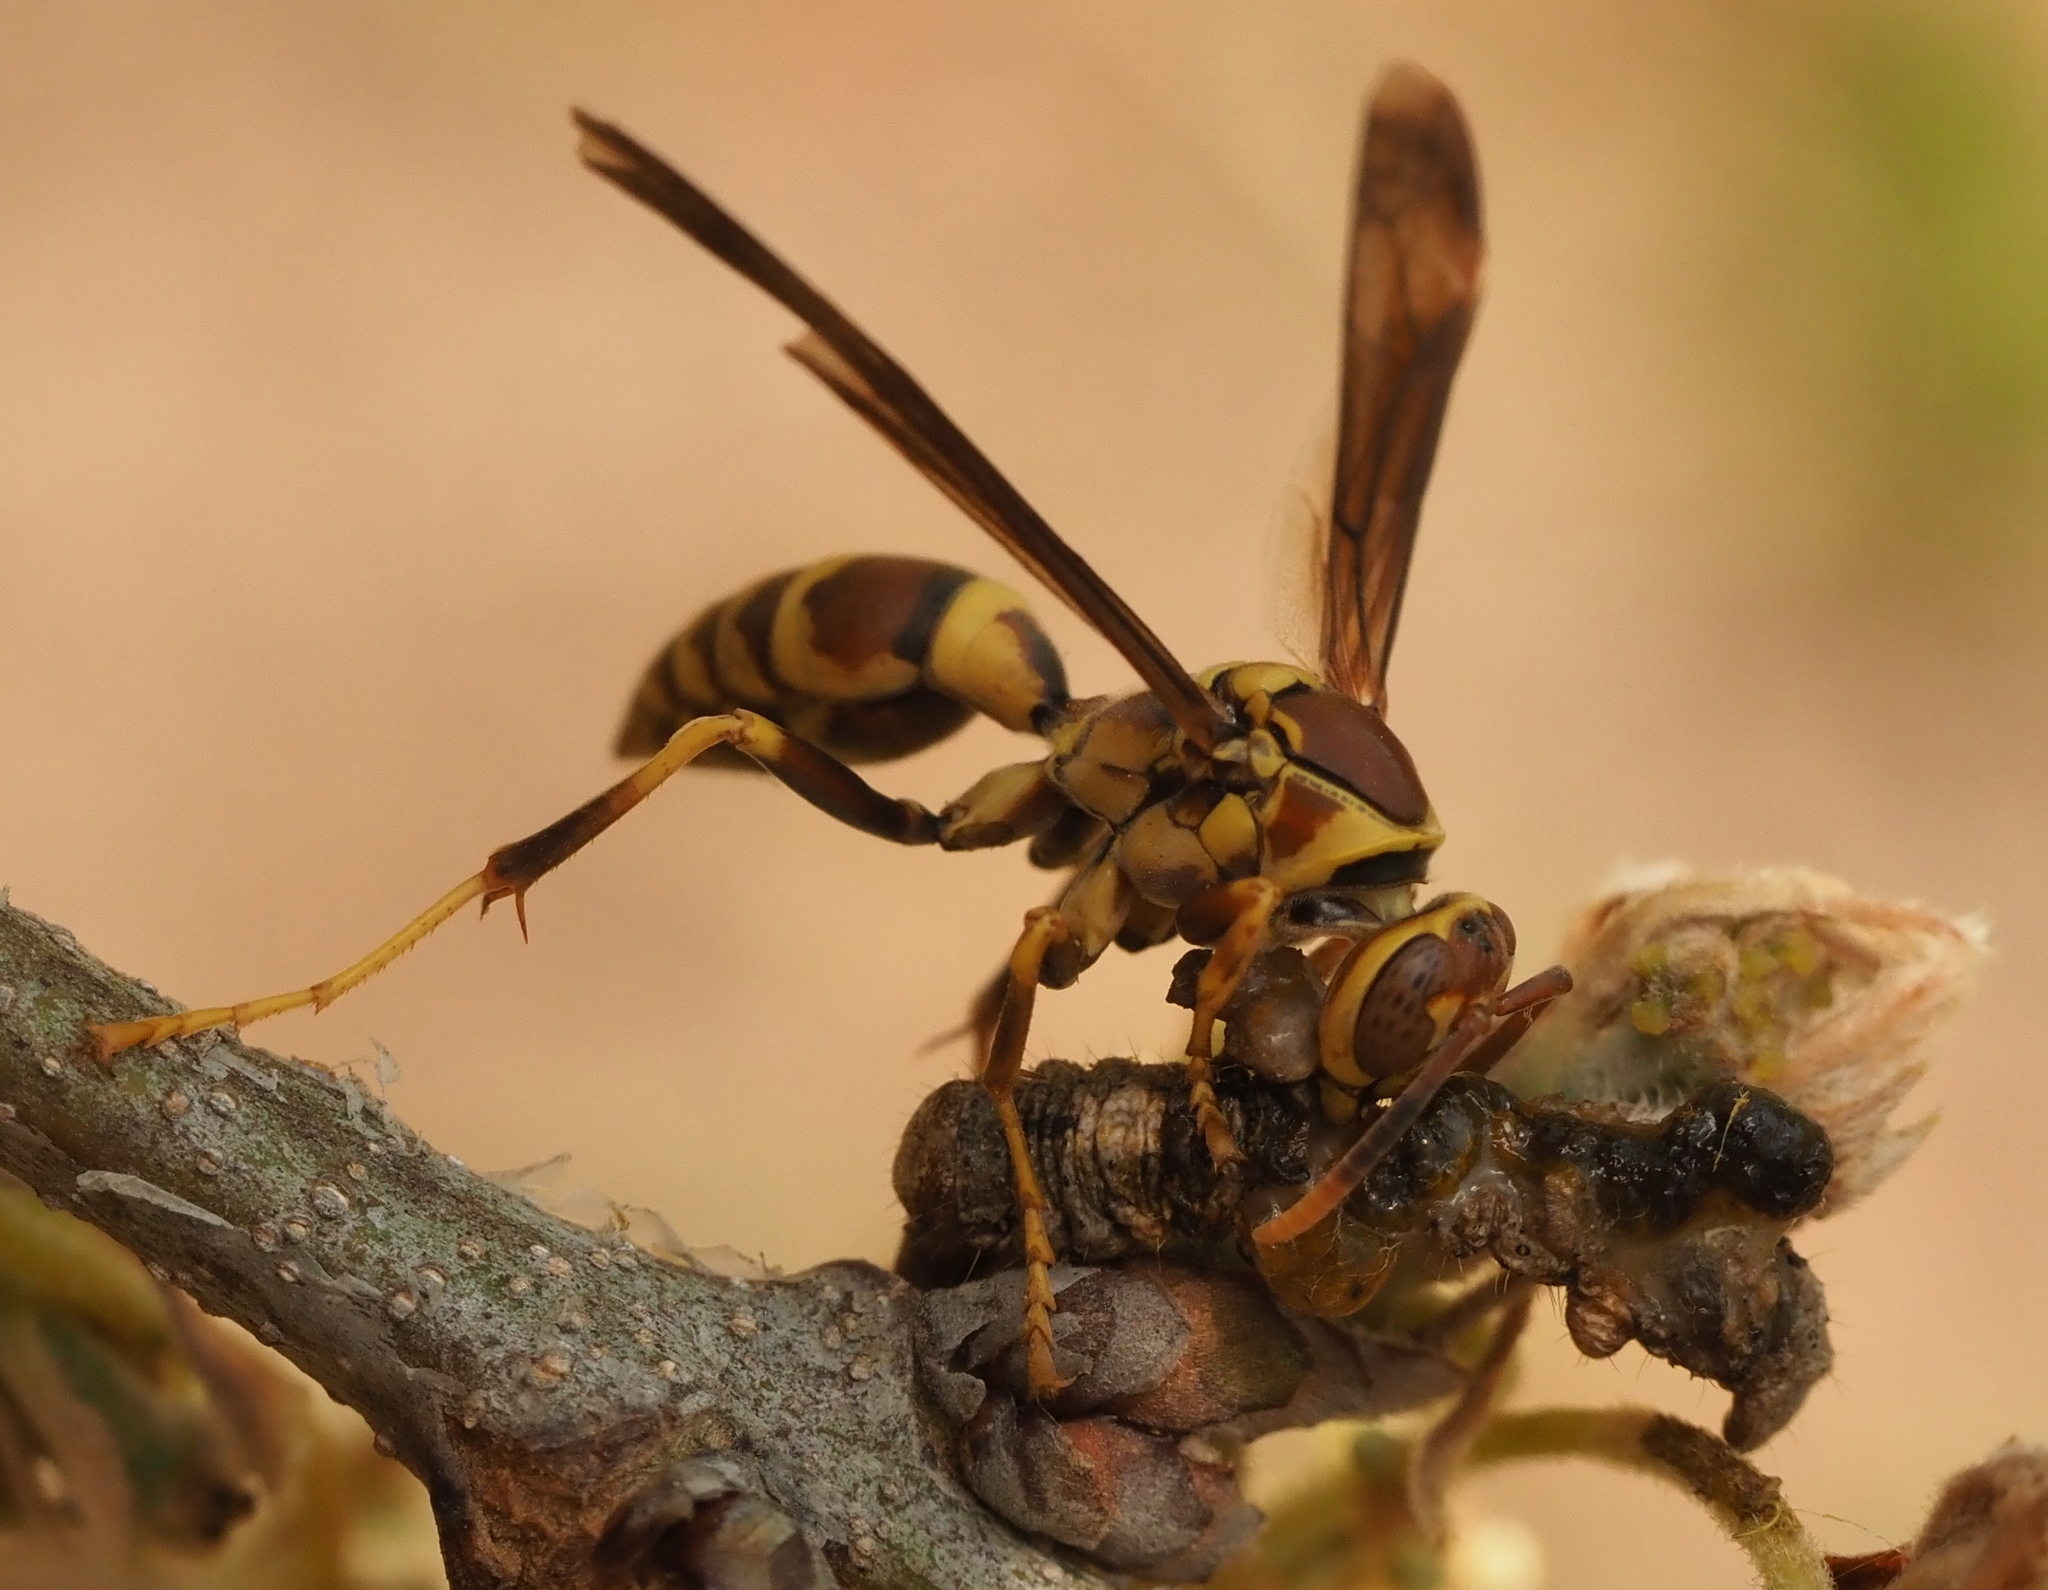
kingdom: Animalia
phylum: Arthropoda
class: Insecta
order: Hymenoptera
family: Eumenidae
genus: Polistes
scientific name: Polistes exclamans
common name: Paper wasp
